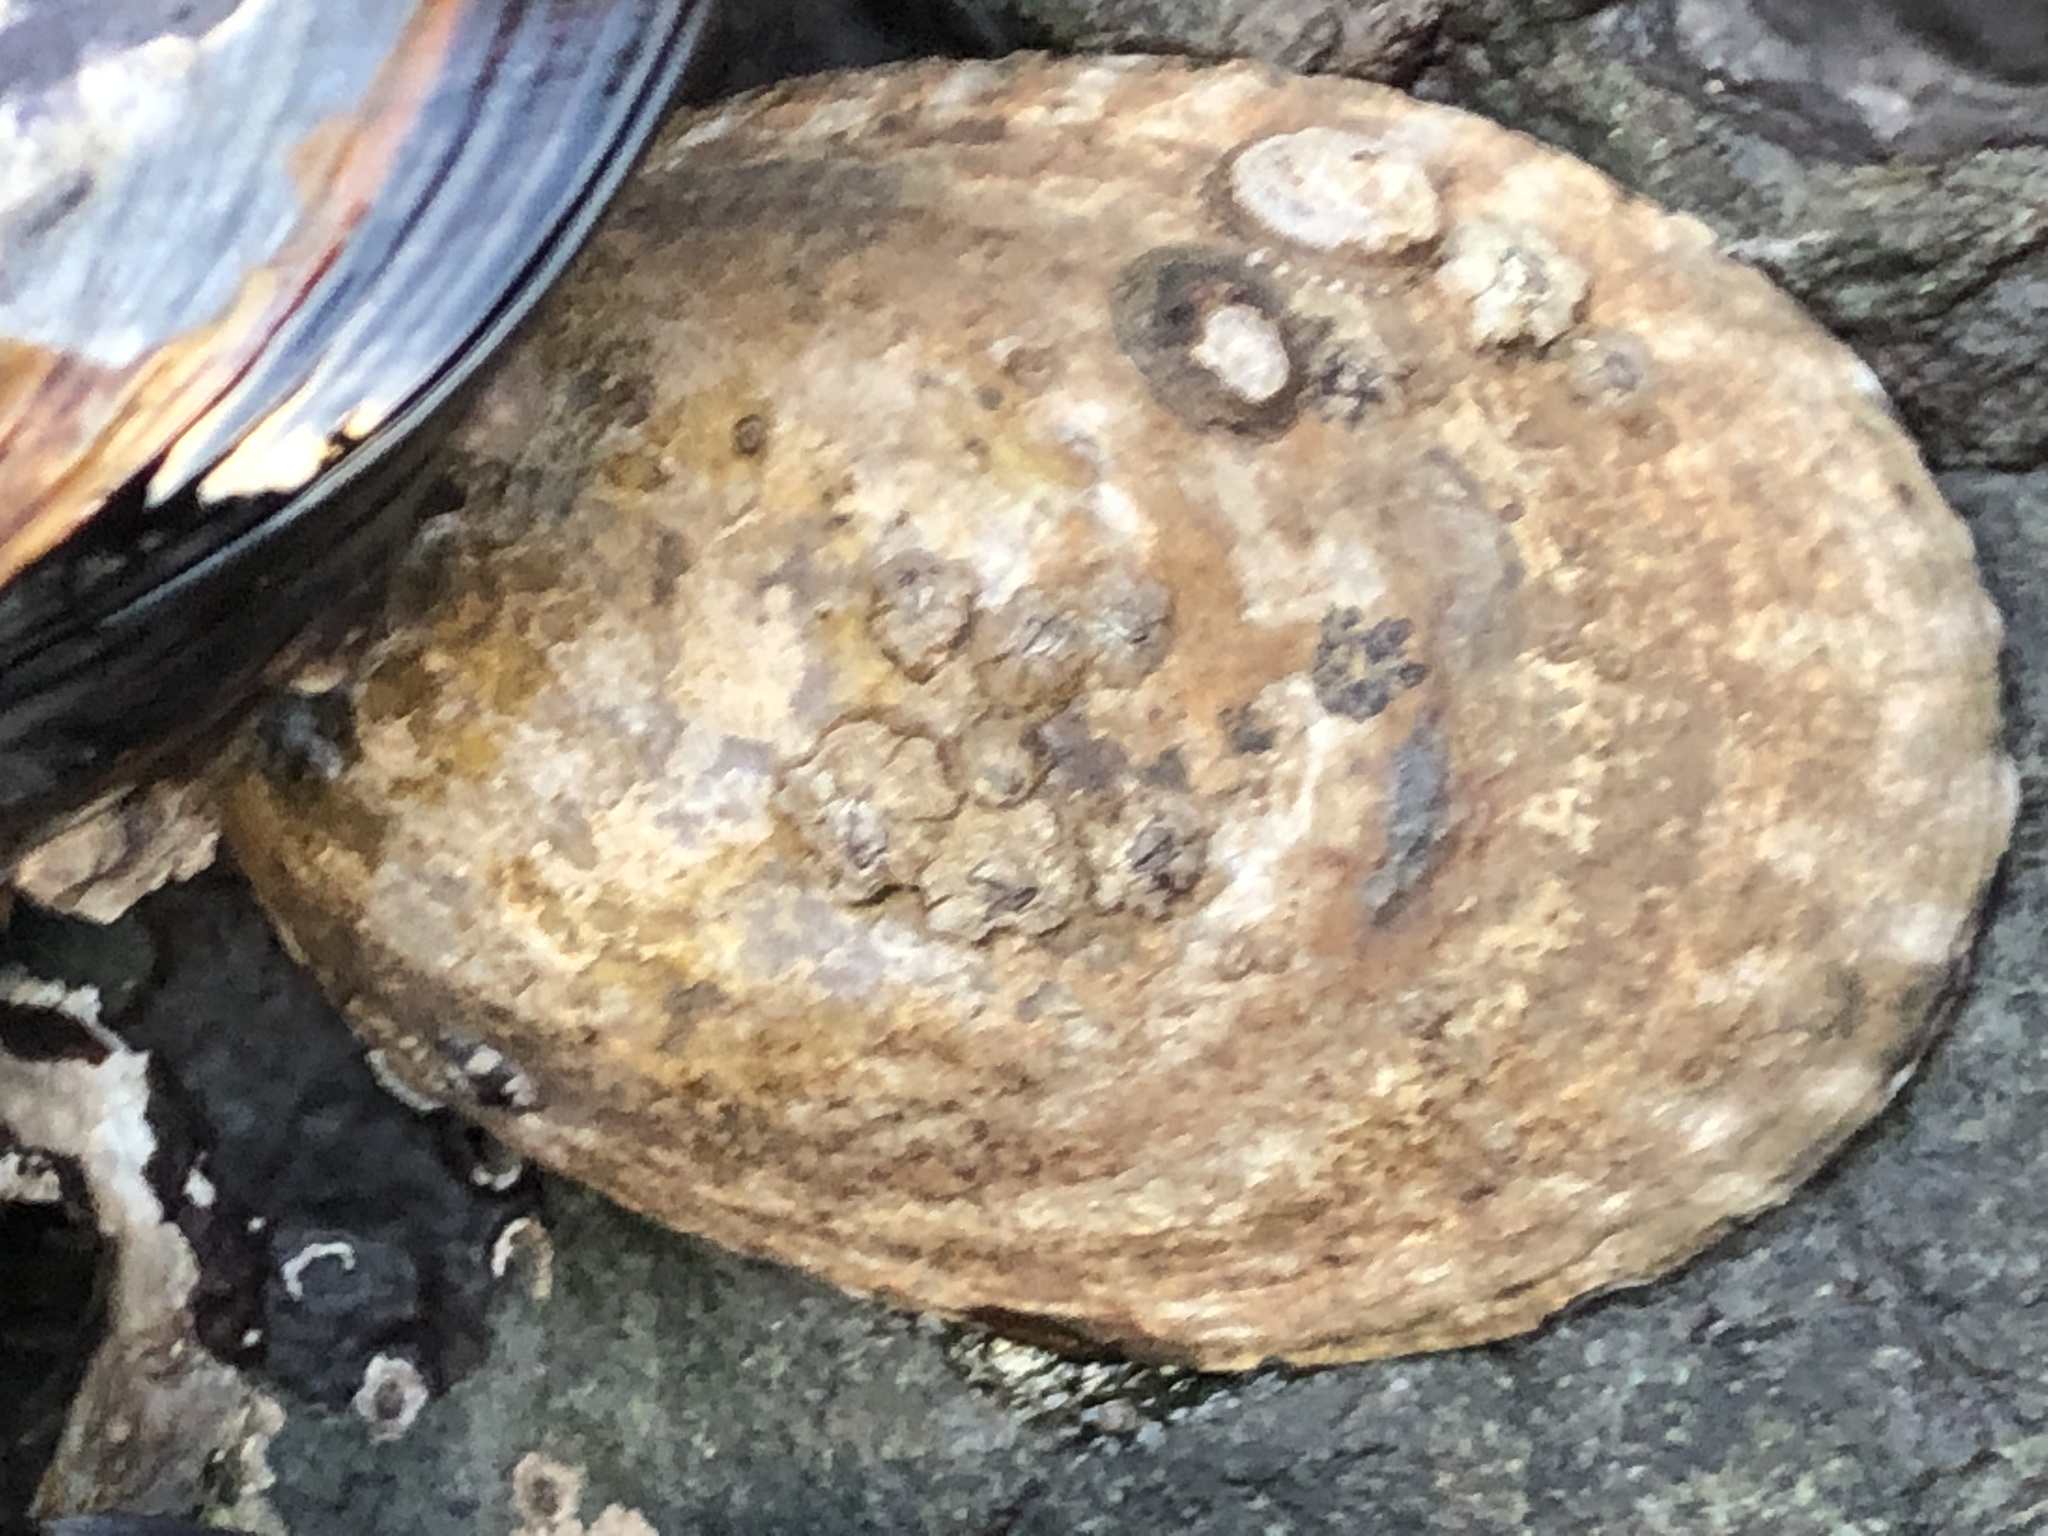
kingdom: Animalia
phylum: Mollusca
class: Gastropoda
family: Lottiidae
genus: Lottia
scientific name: Lottia gigantea
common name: Owl limpet
